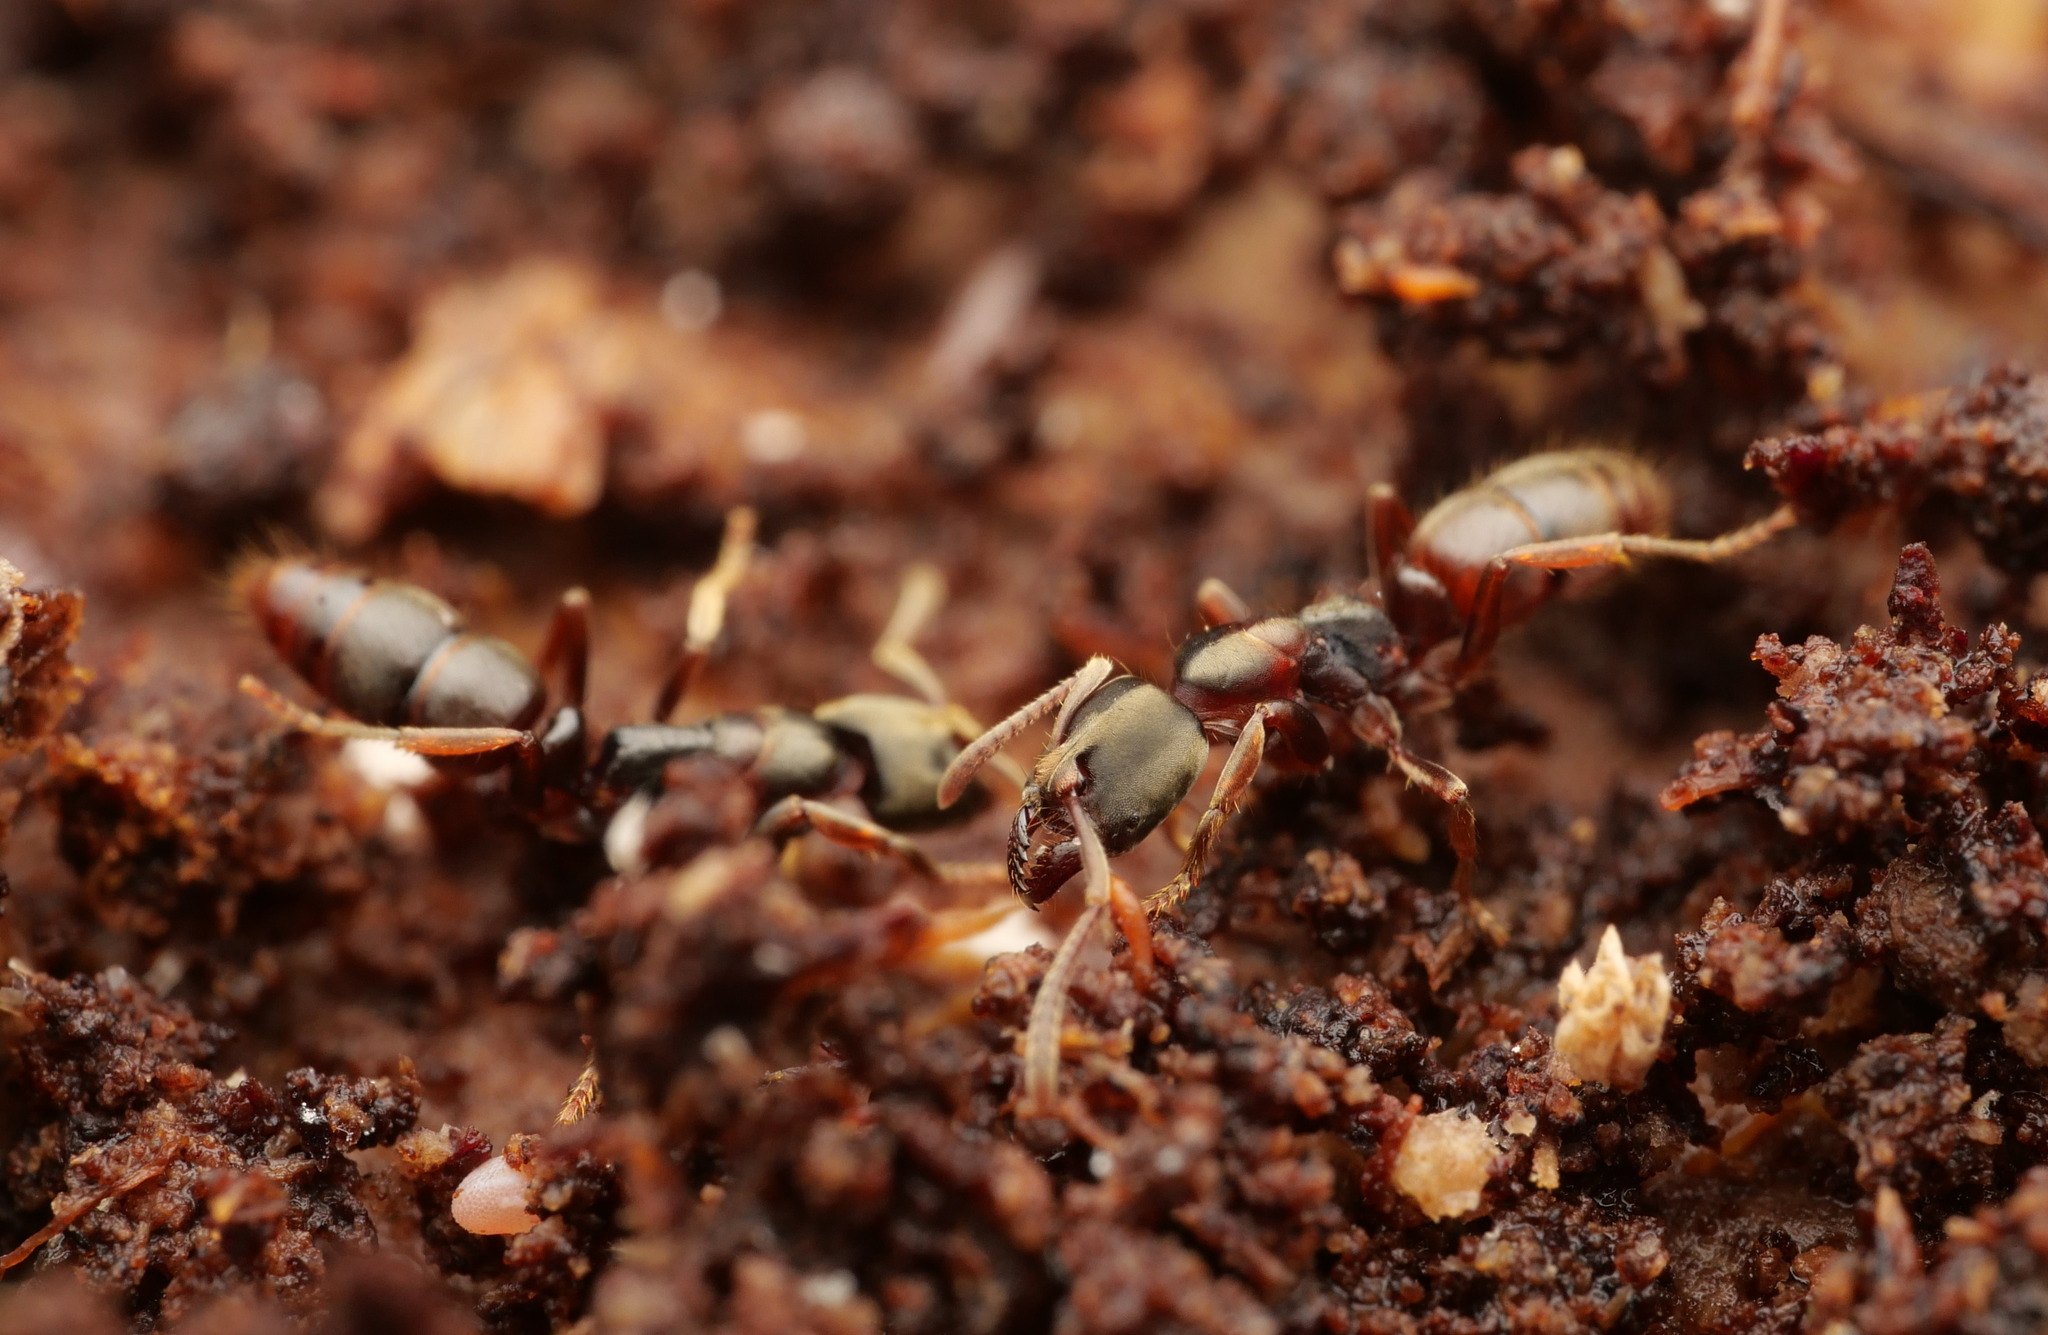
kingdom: Animalia
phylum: Arthropoda
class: Insecta
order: Hymenoptera
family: Formicidae
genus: Pachycondyla
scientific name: Pachycondyla stigma
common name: Pantropical panther ant
